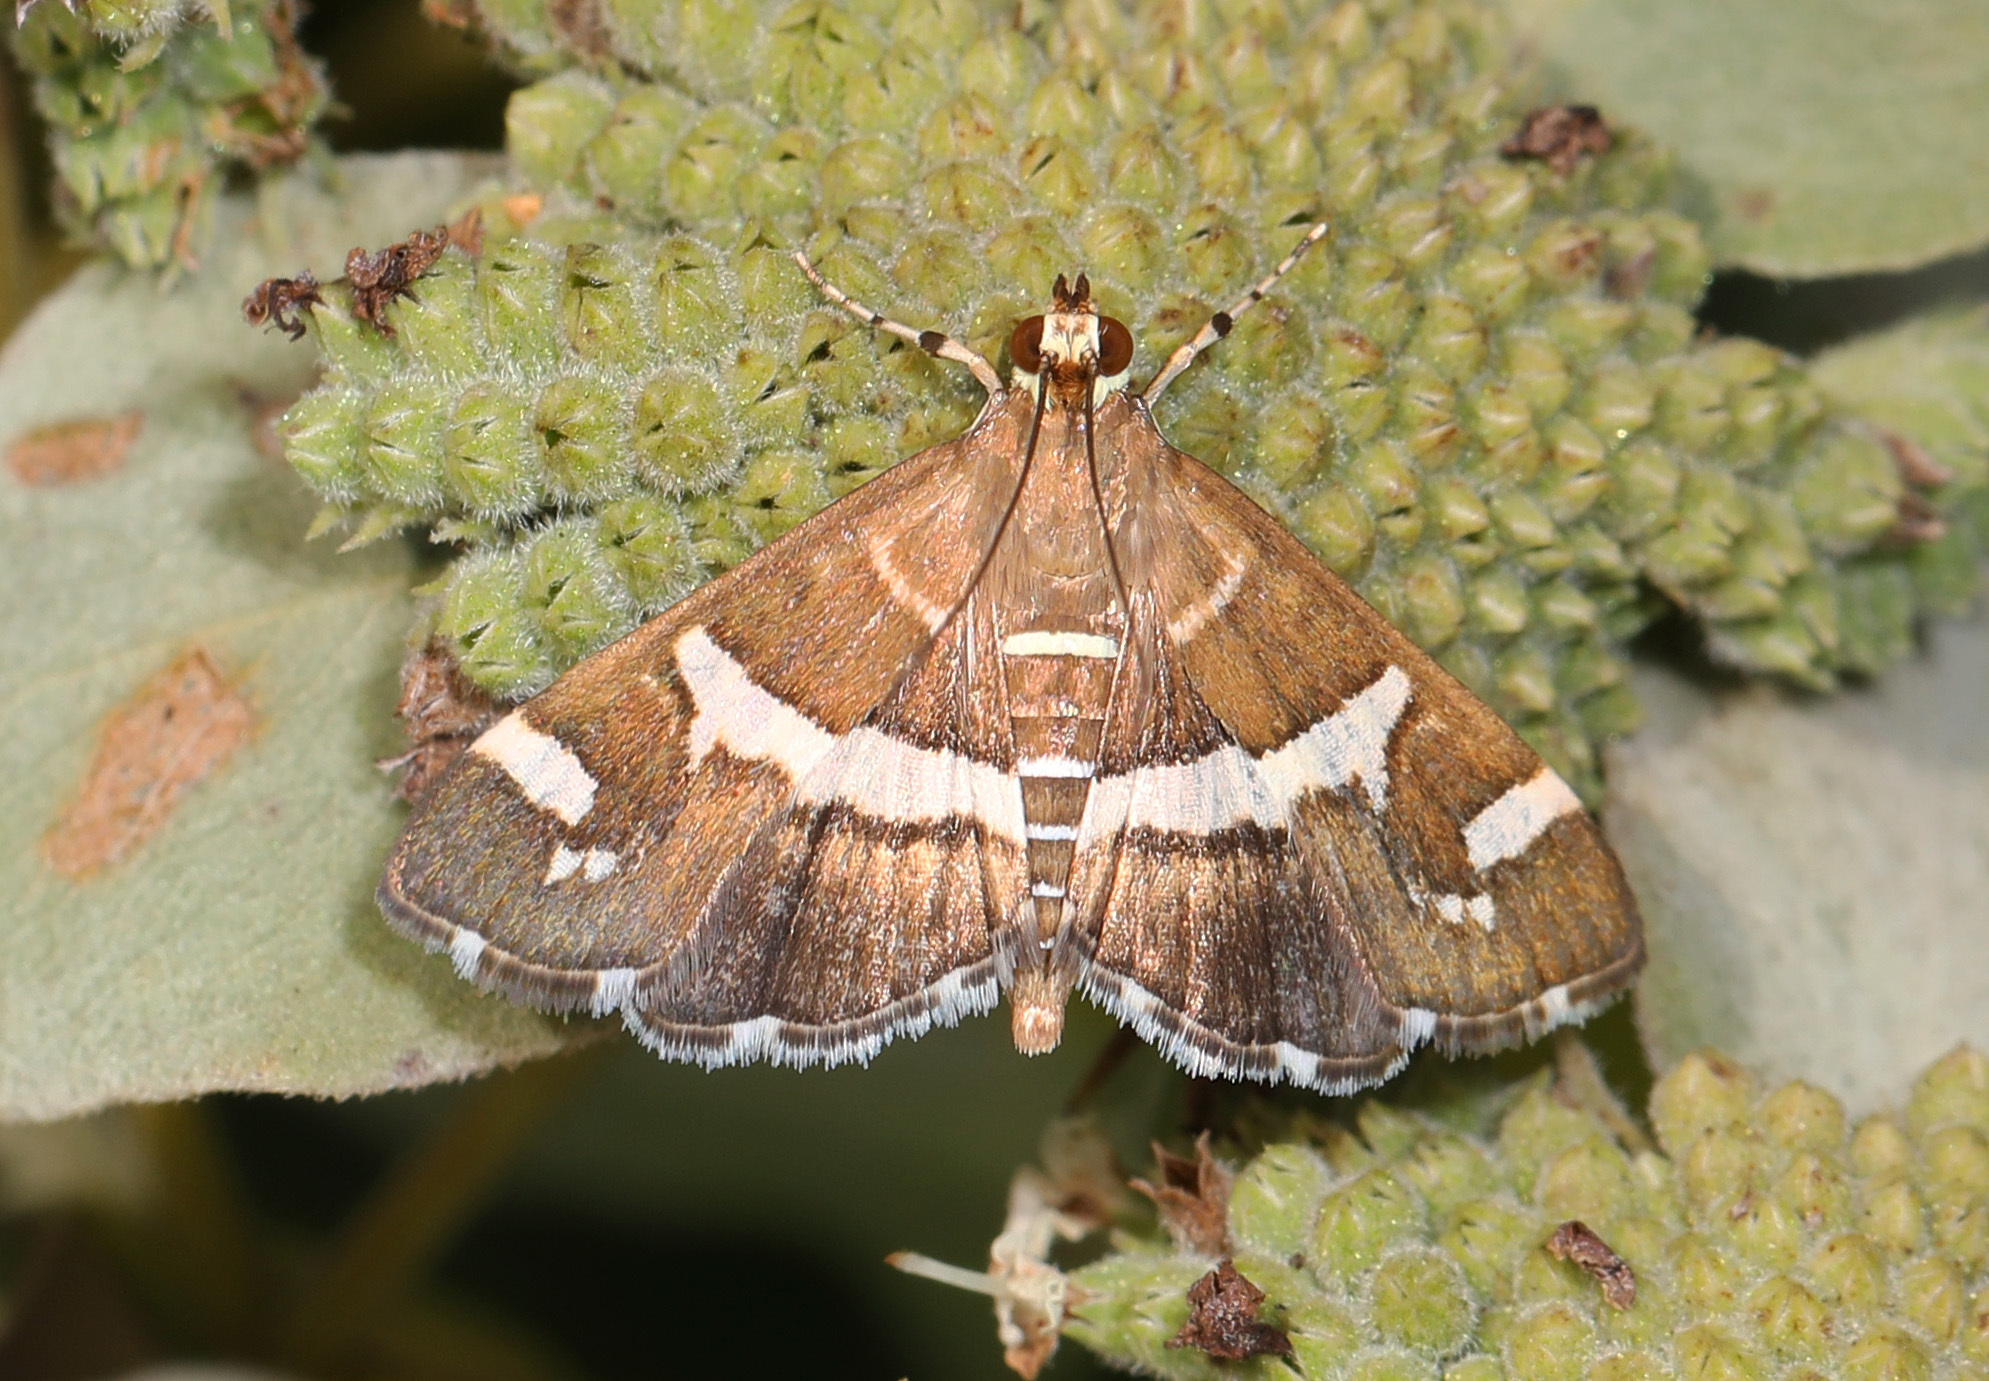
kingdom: Animalia
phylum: Arthropoda
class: Insecta
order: Lepidoptera
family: Crambidae
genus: Spoladea
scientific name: Spoladea recurvalis
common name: Beet webworm moth
